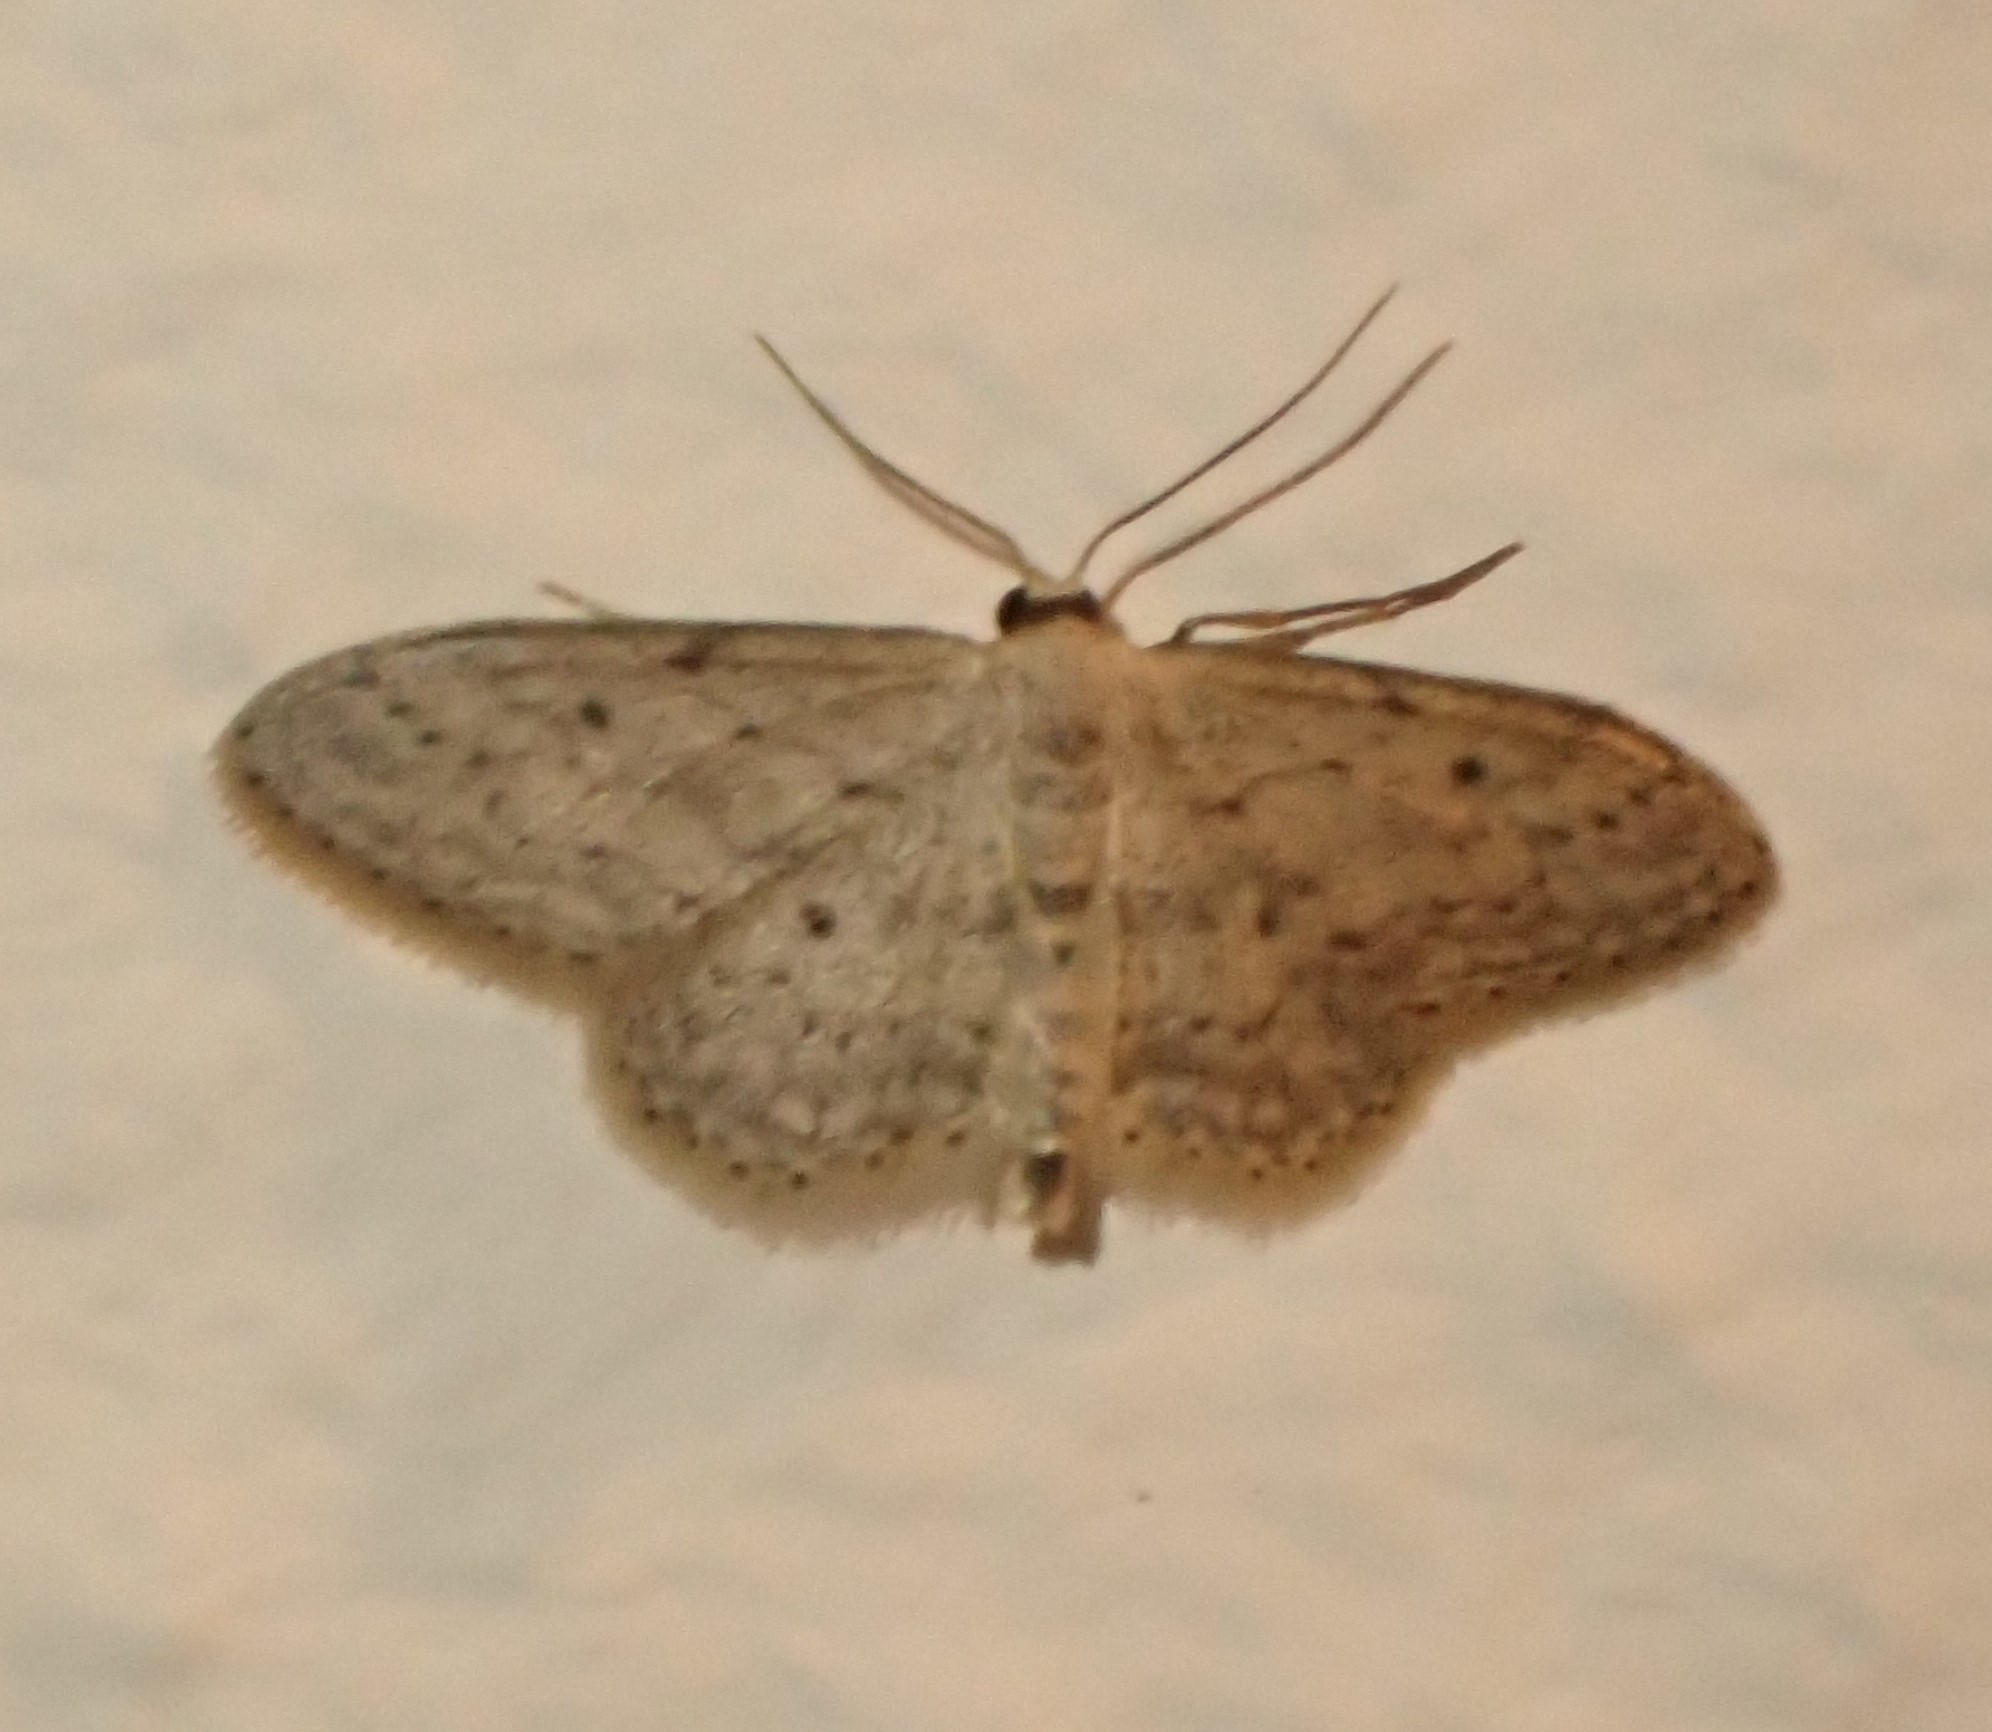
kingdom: Animalia
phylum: Arthropoda
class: Insecta
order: Lepidoptera
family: Geometridae
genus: Idaea
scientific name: Idaea seriata
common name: Small dusty wave
